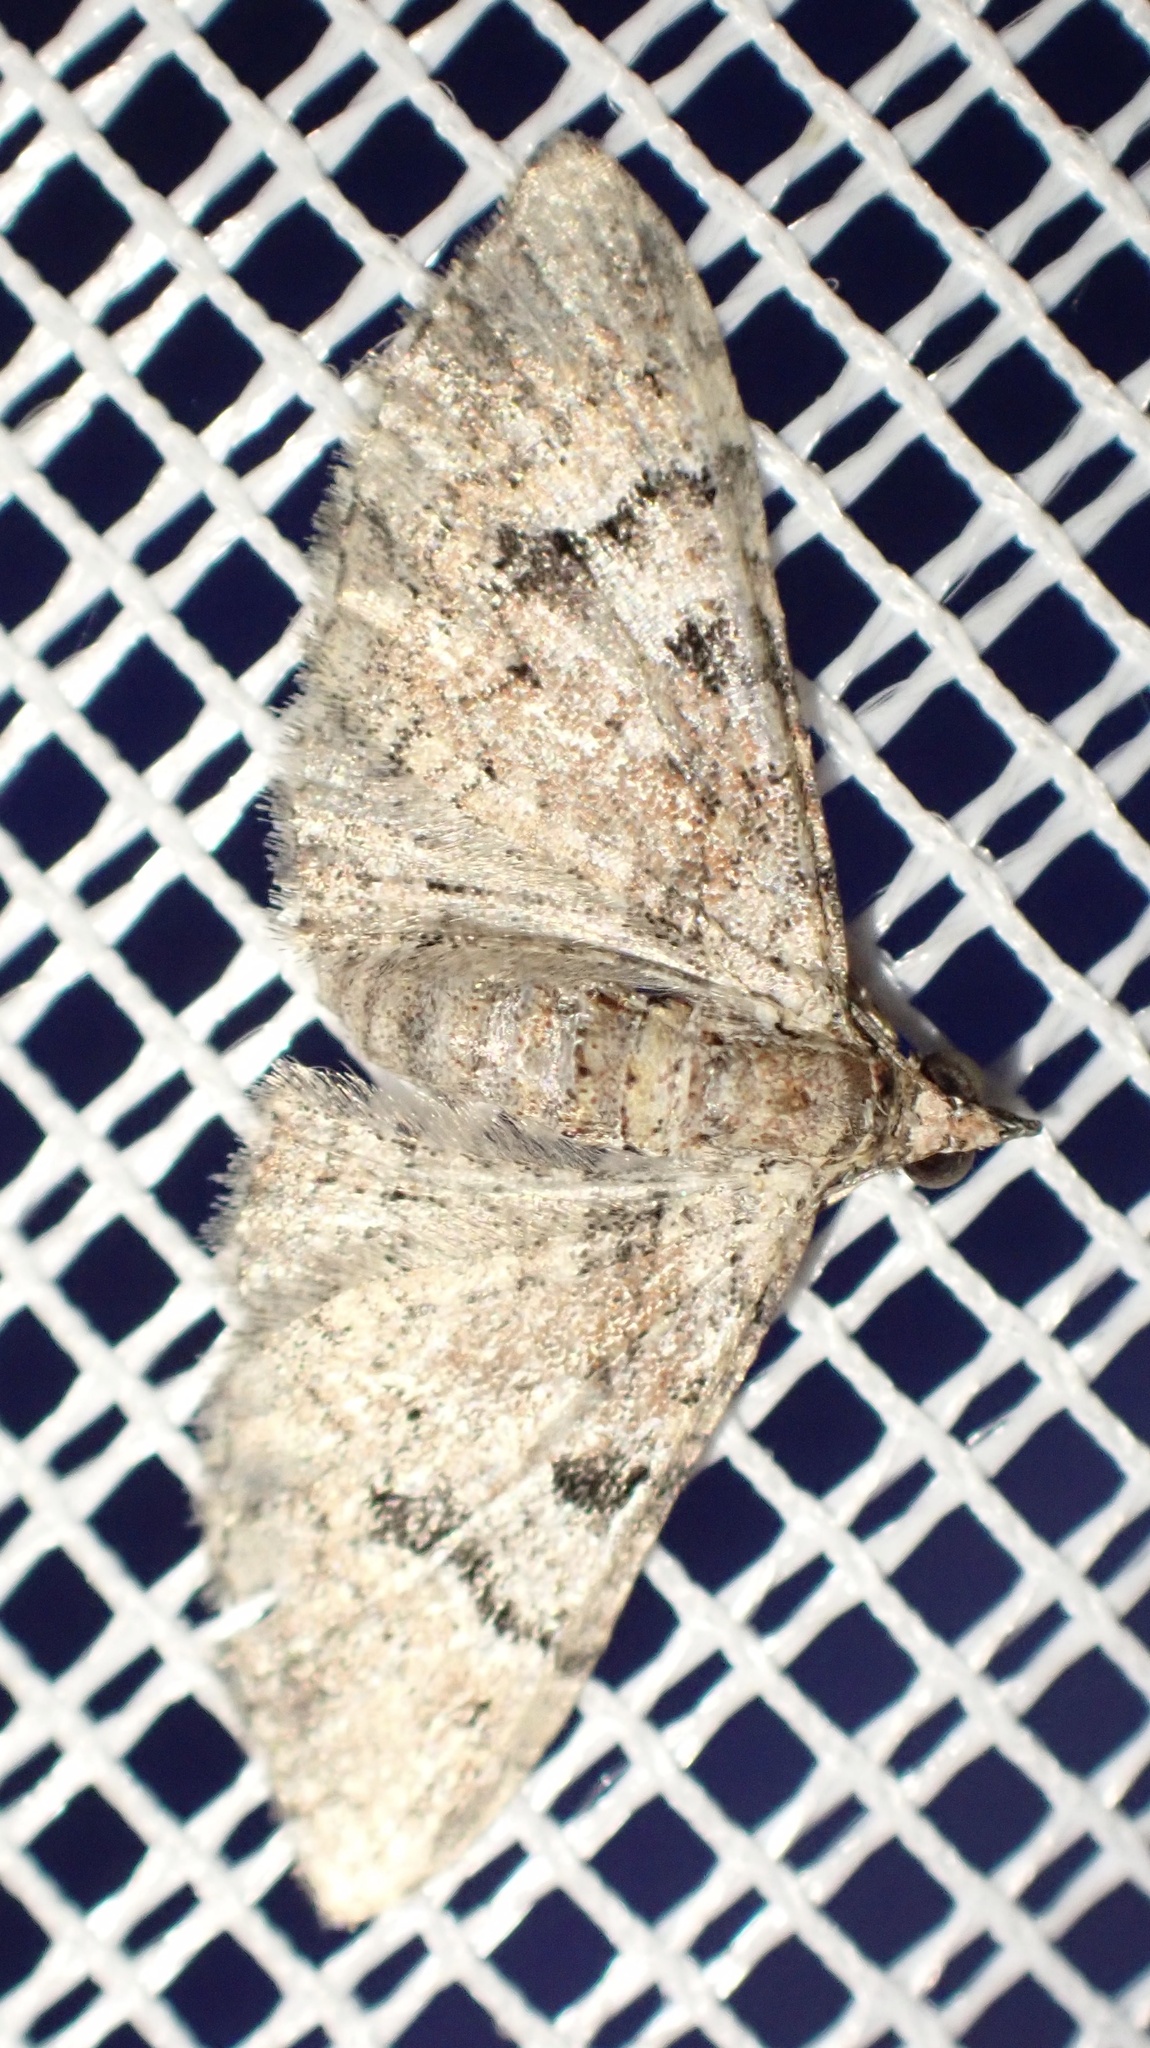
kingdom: Animalia
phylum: Arthropoda
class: Insecta
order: Lepidoptera
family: Geometridae
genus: Mnesiloba
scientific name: Mnesiloba eupitheciata
